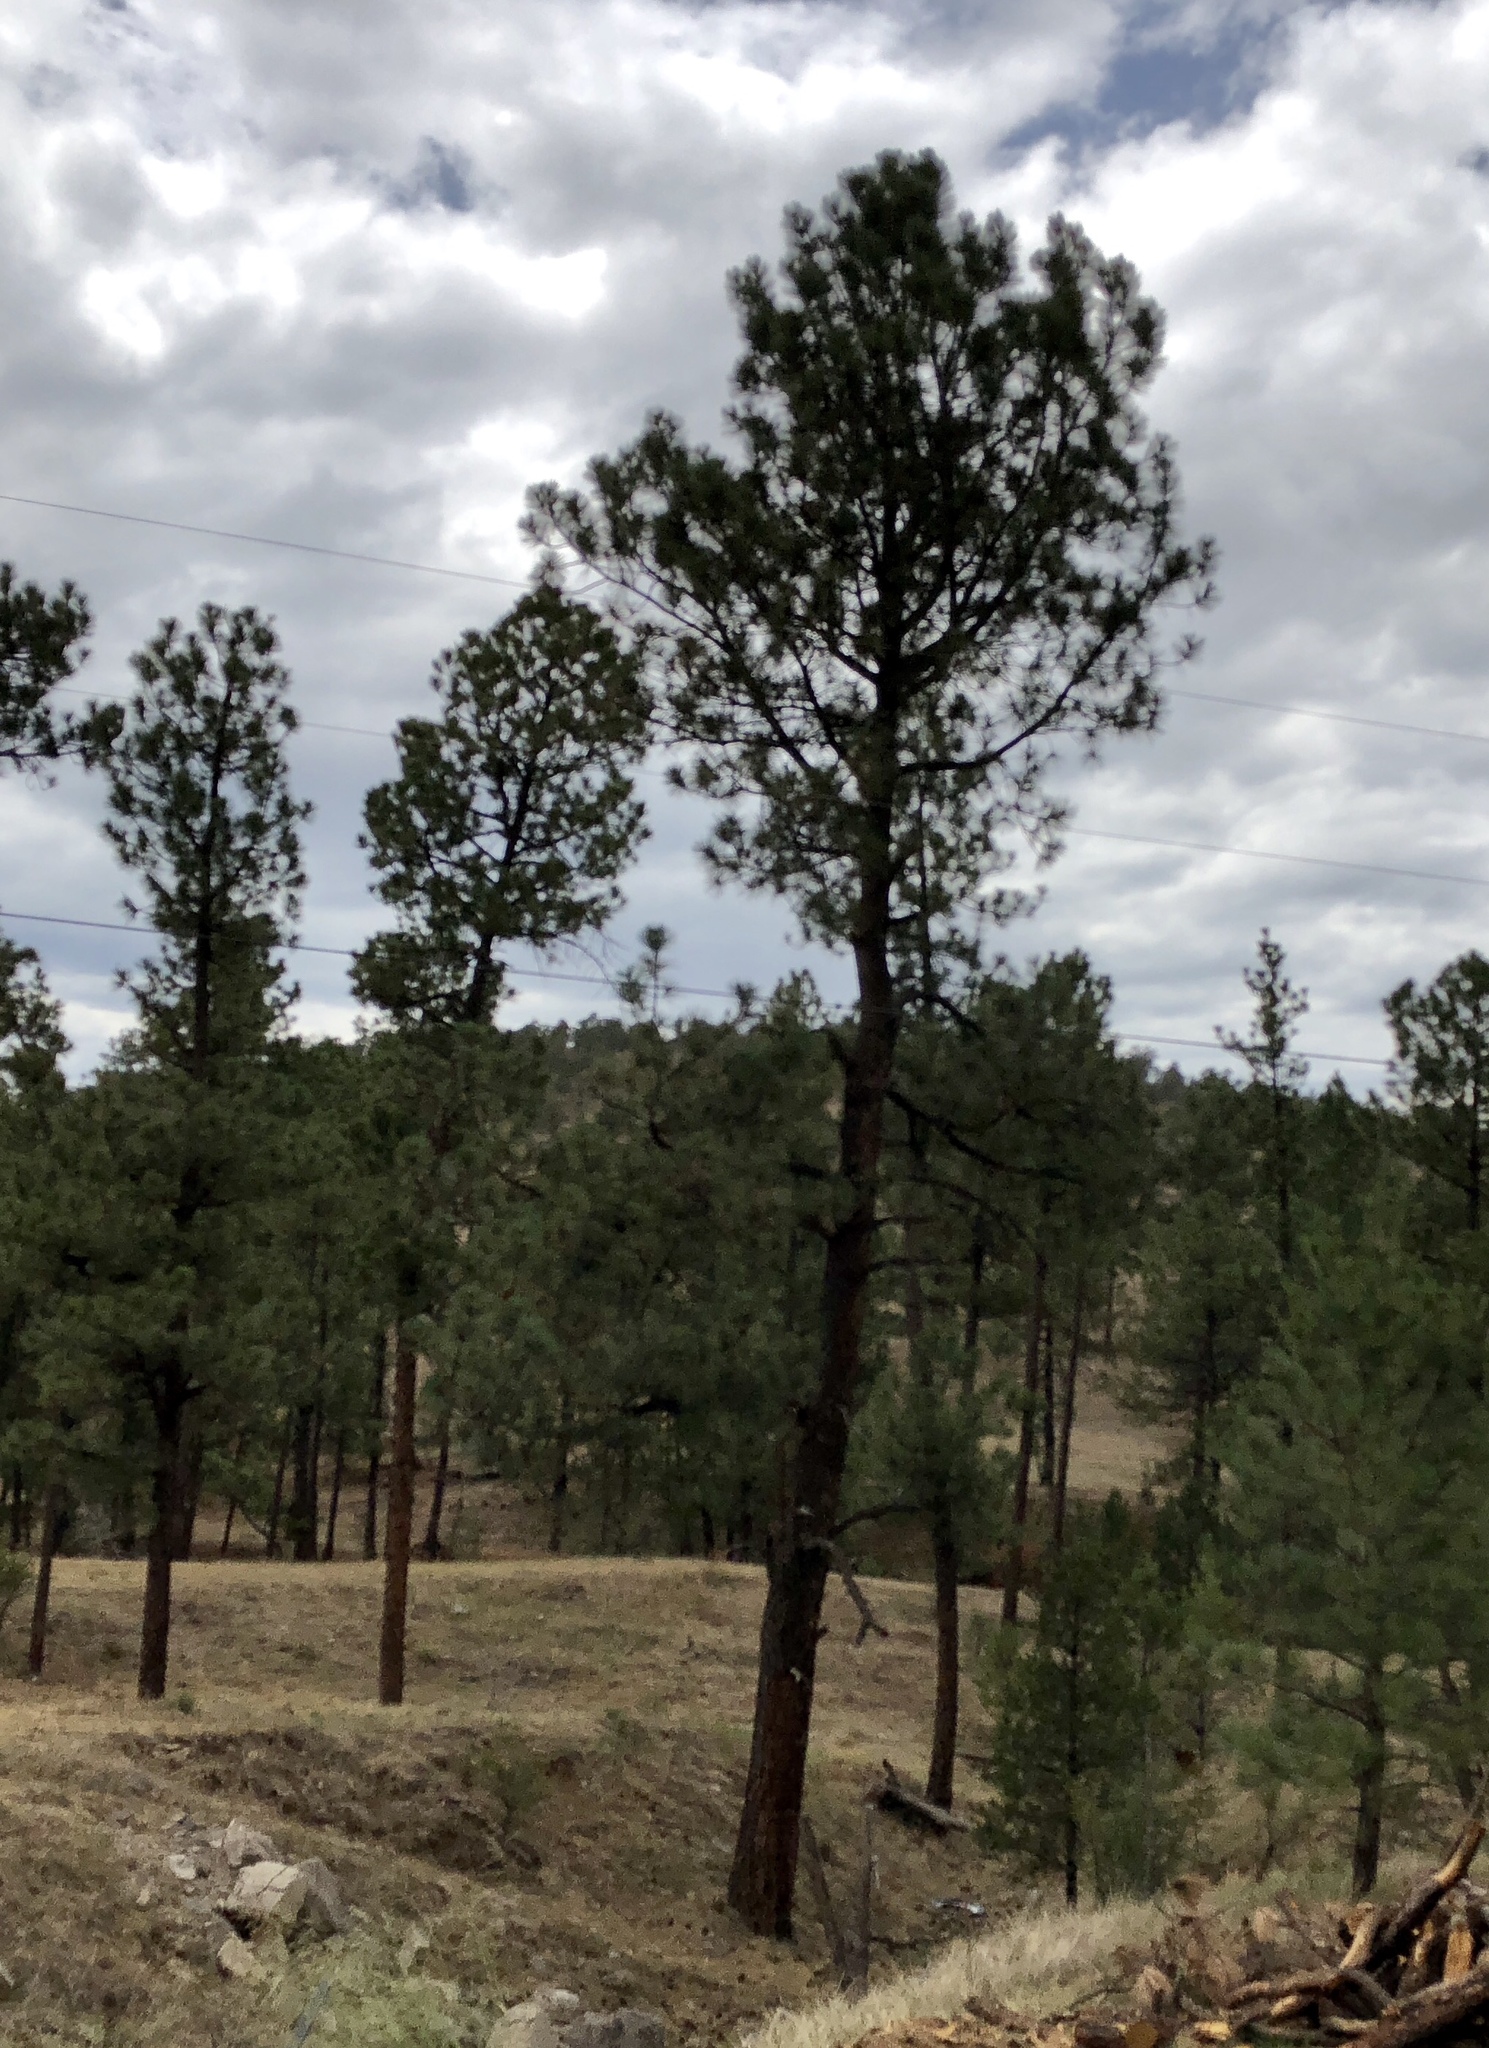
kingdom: Plantae
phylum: Tracheophyta
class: Pinopsida
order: Pinales
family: Pinaceae
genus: Pinus
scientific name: Pinus ponderosa
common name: Western yellow-pine
